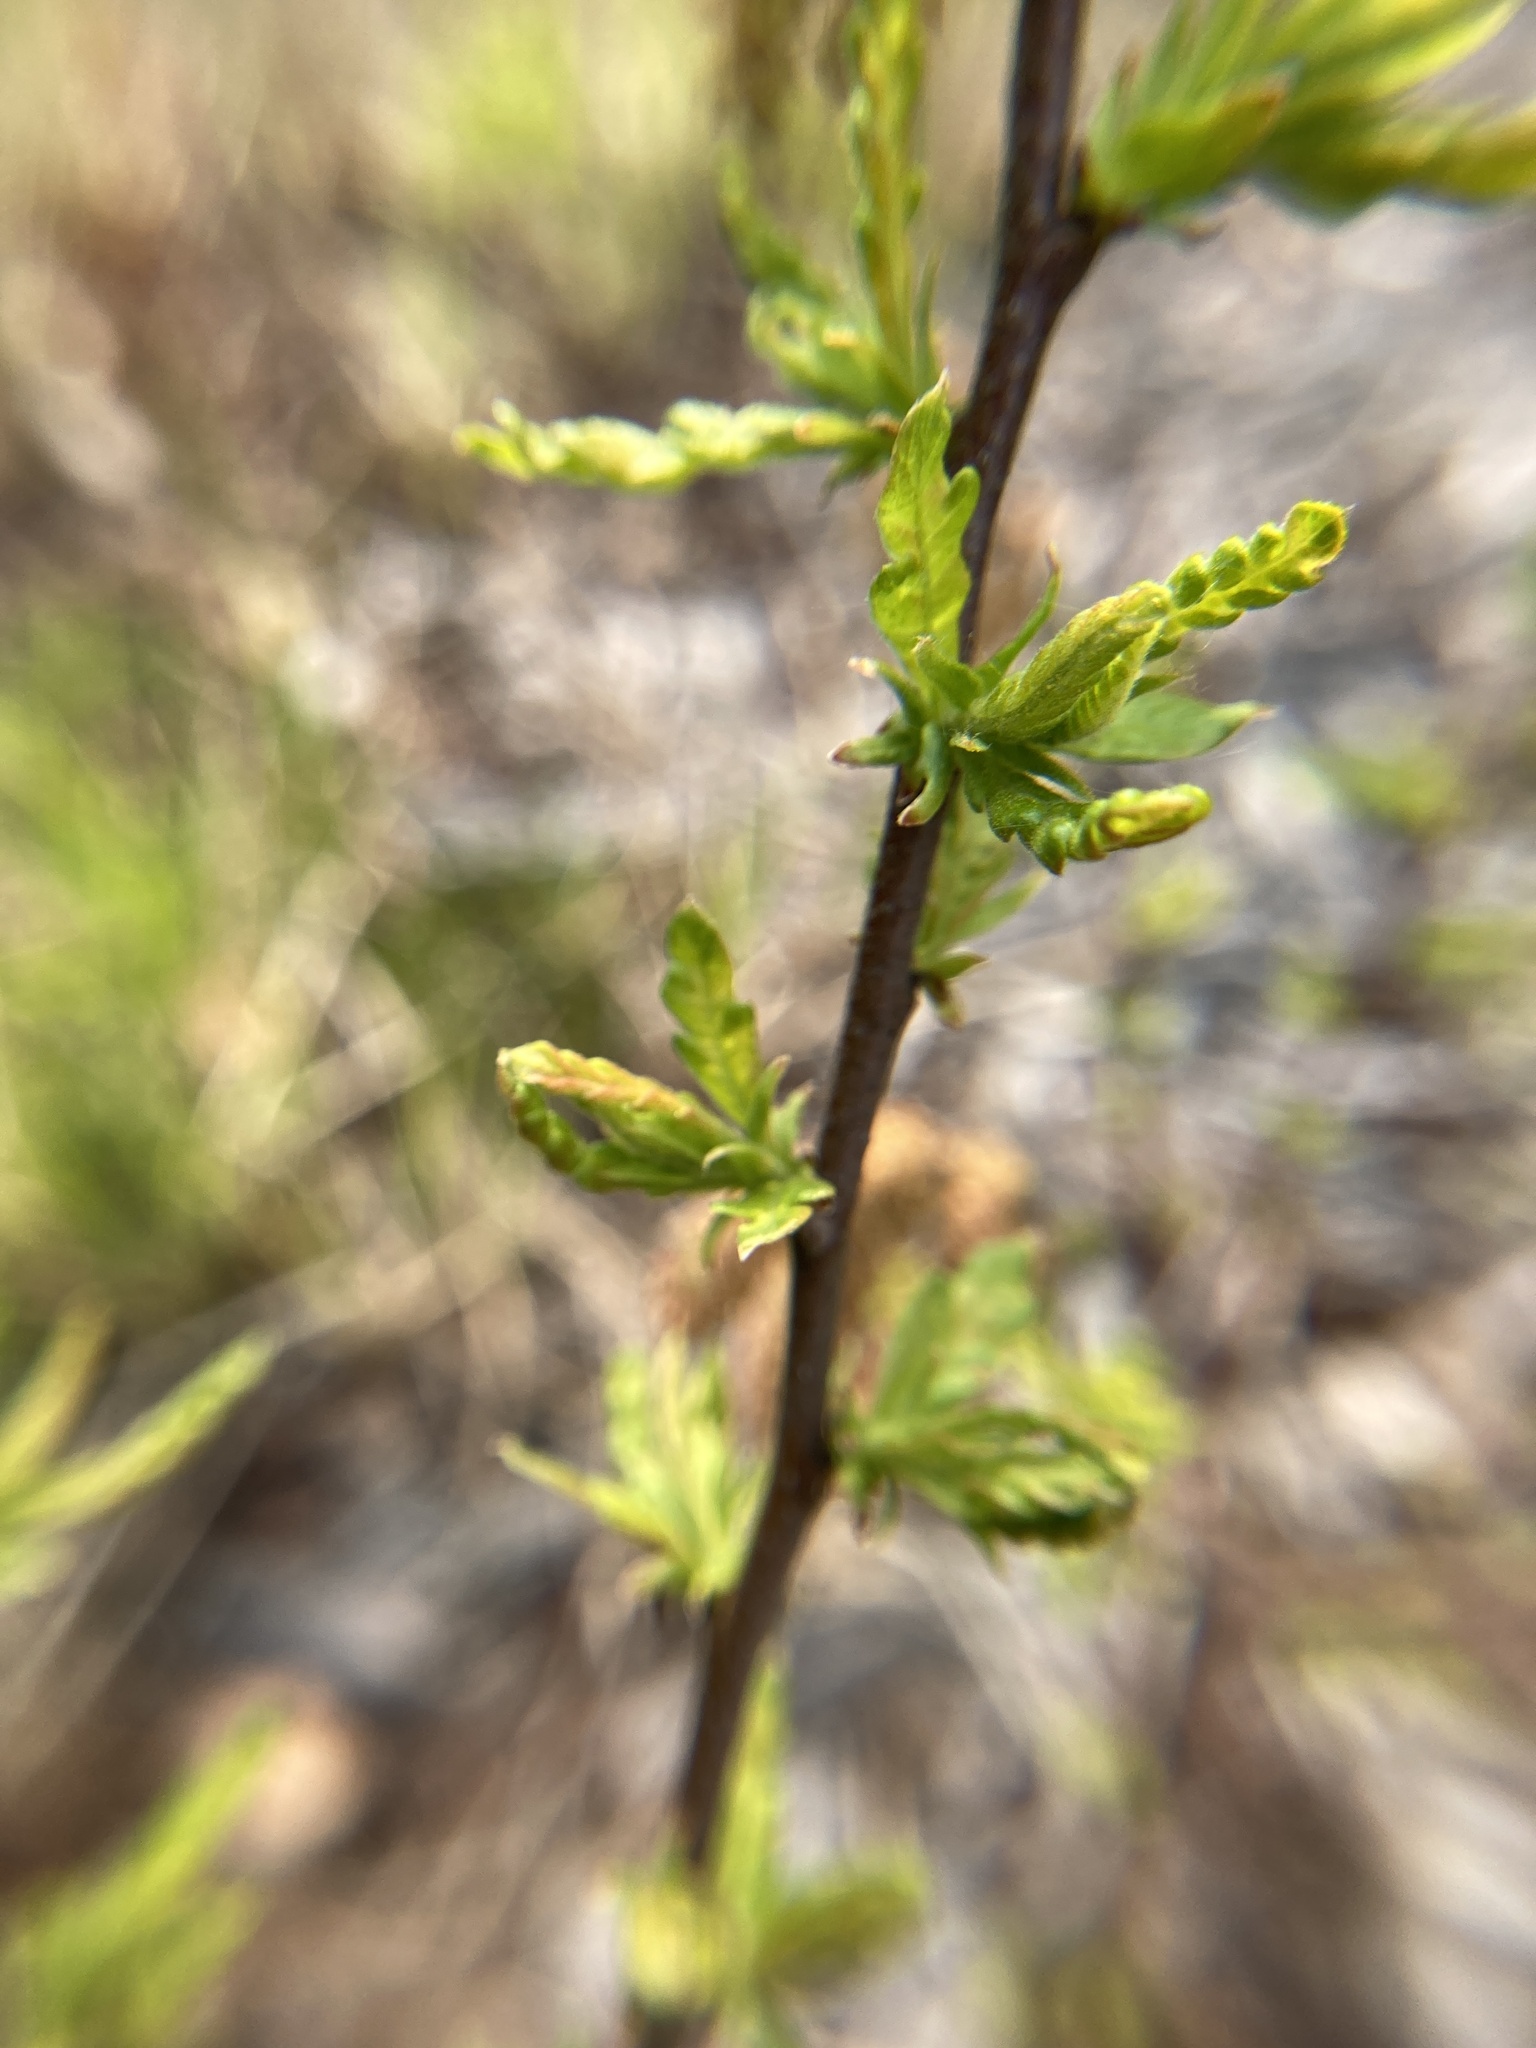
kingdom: Plantae
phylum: Tracheophyta
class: Magnoliopsida
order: Fagales
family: Myricaceae
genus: Comptonia
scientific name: Comptonia peregrina
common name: Sweet-fern
